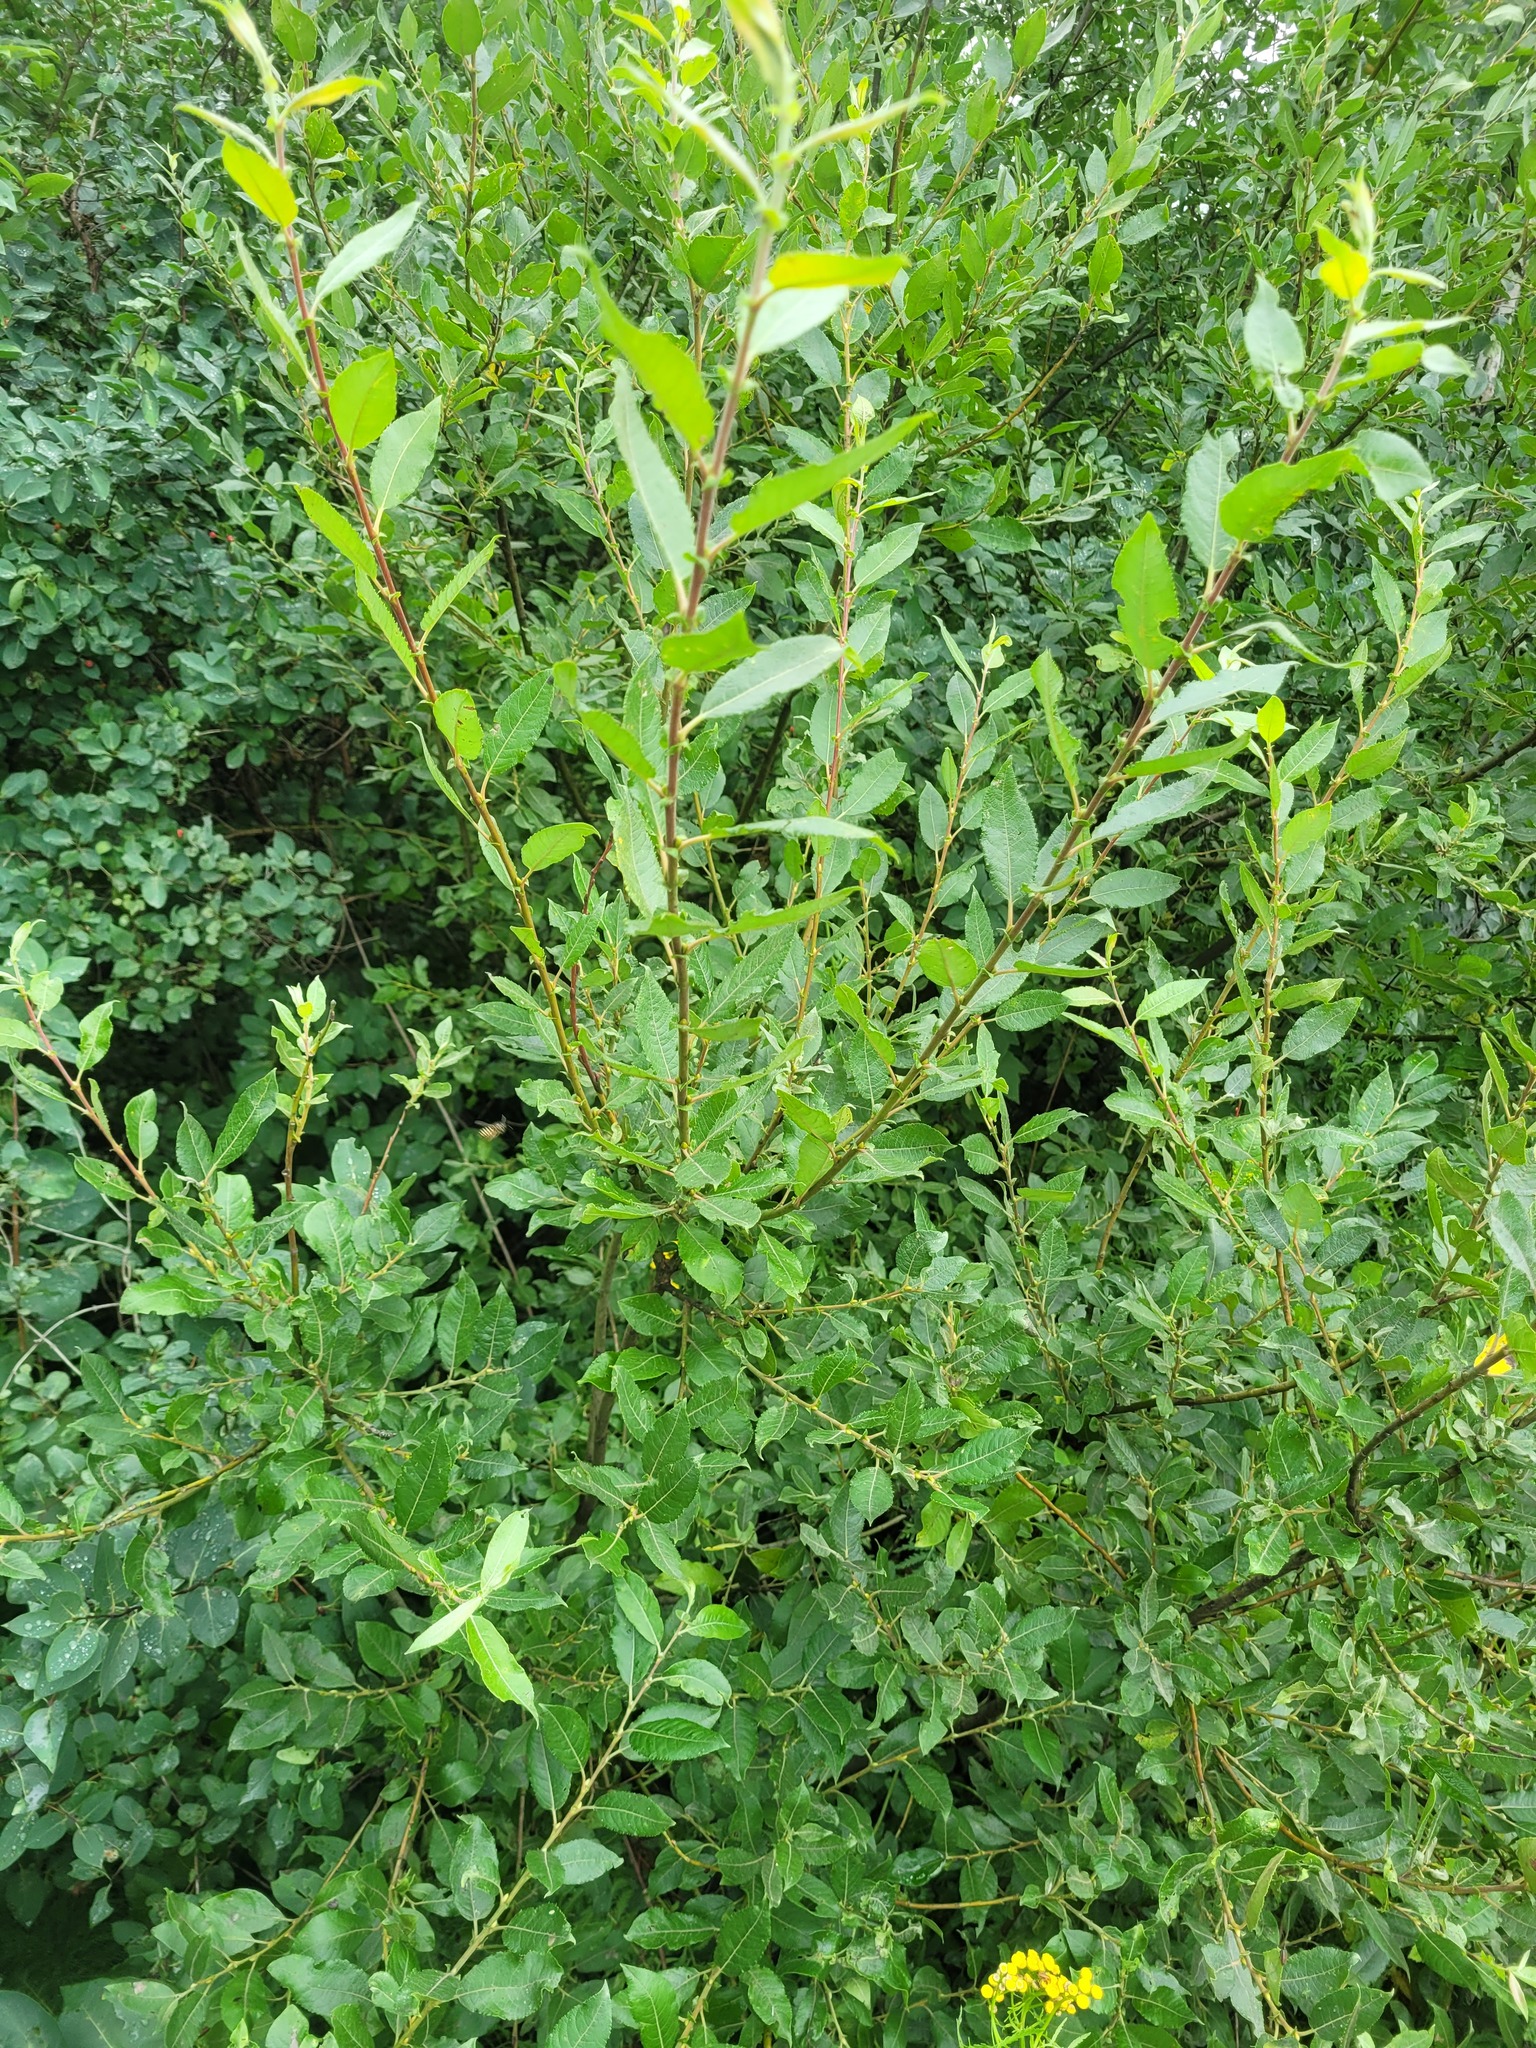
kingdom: Plantae
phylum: Tracheophyta
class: Magnoliopsida
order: Malpighiales
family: Salicaceae
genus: Salix
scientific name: Salix myrsinifolia
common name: Dark-leaved willow
